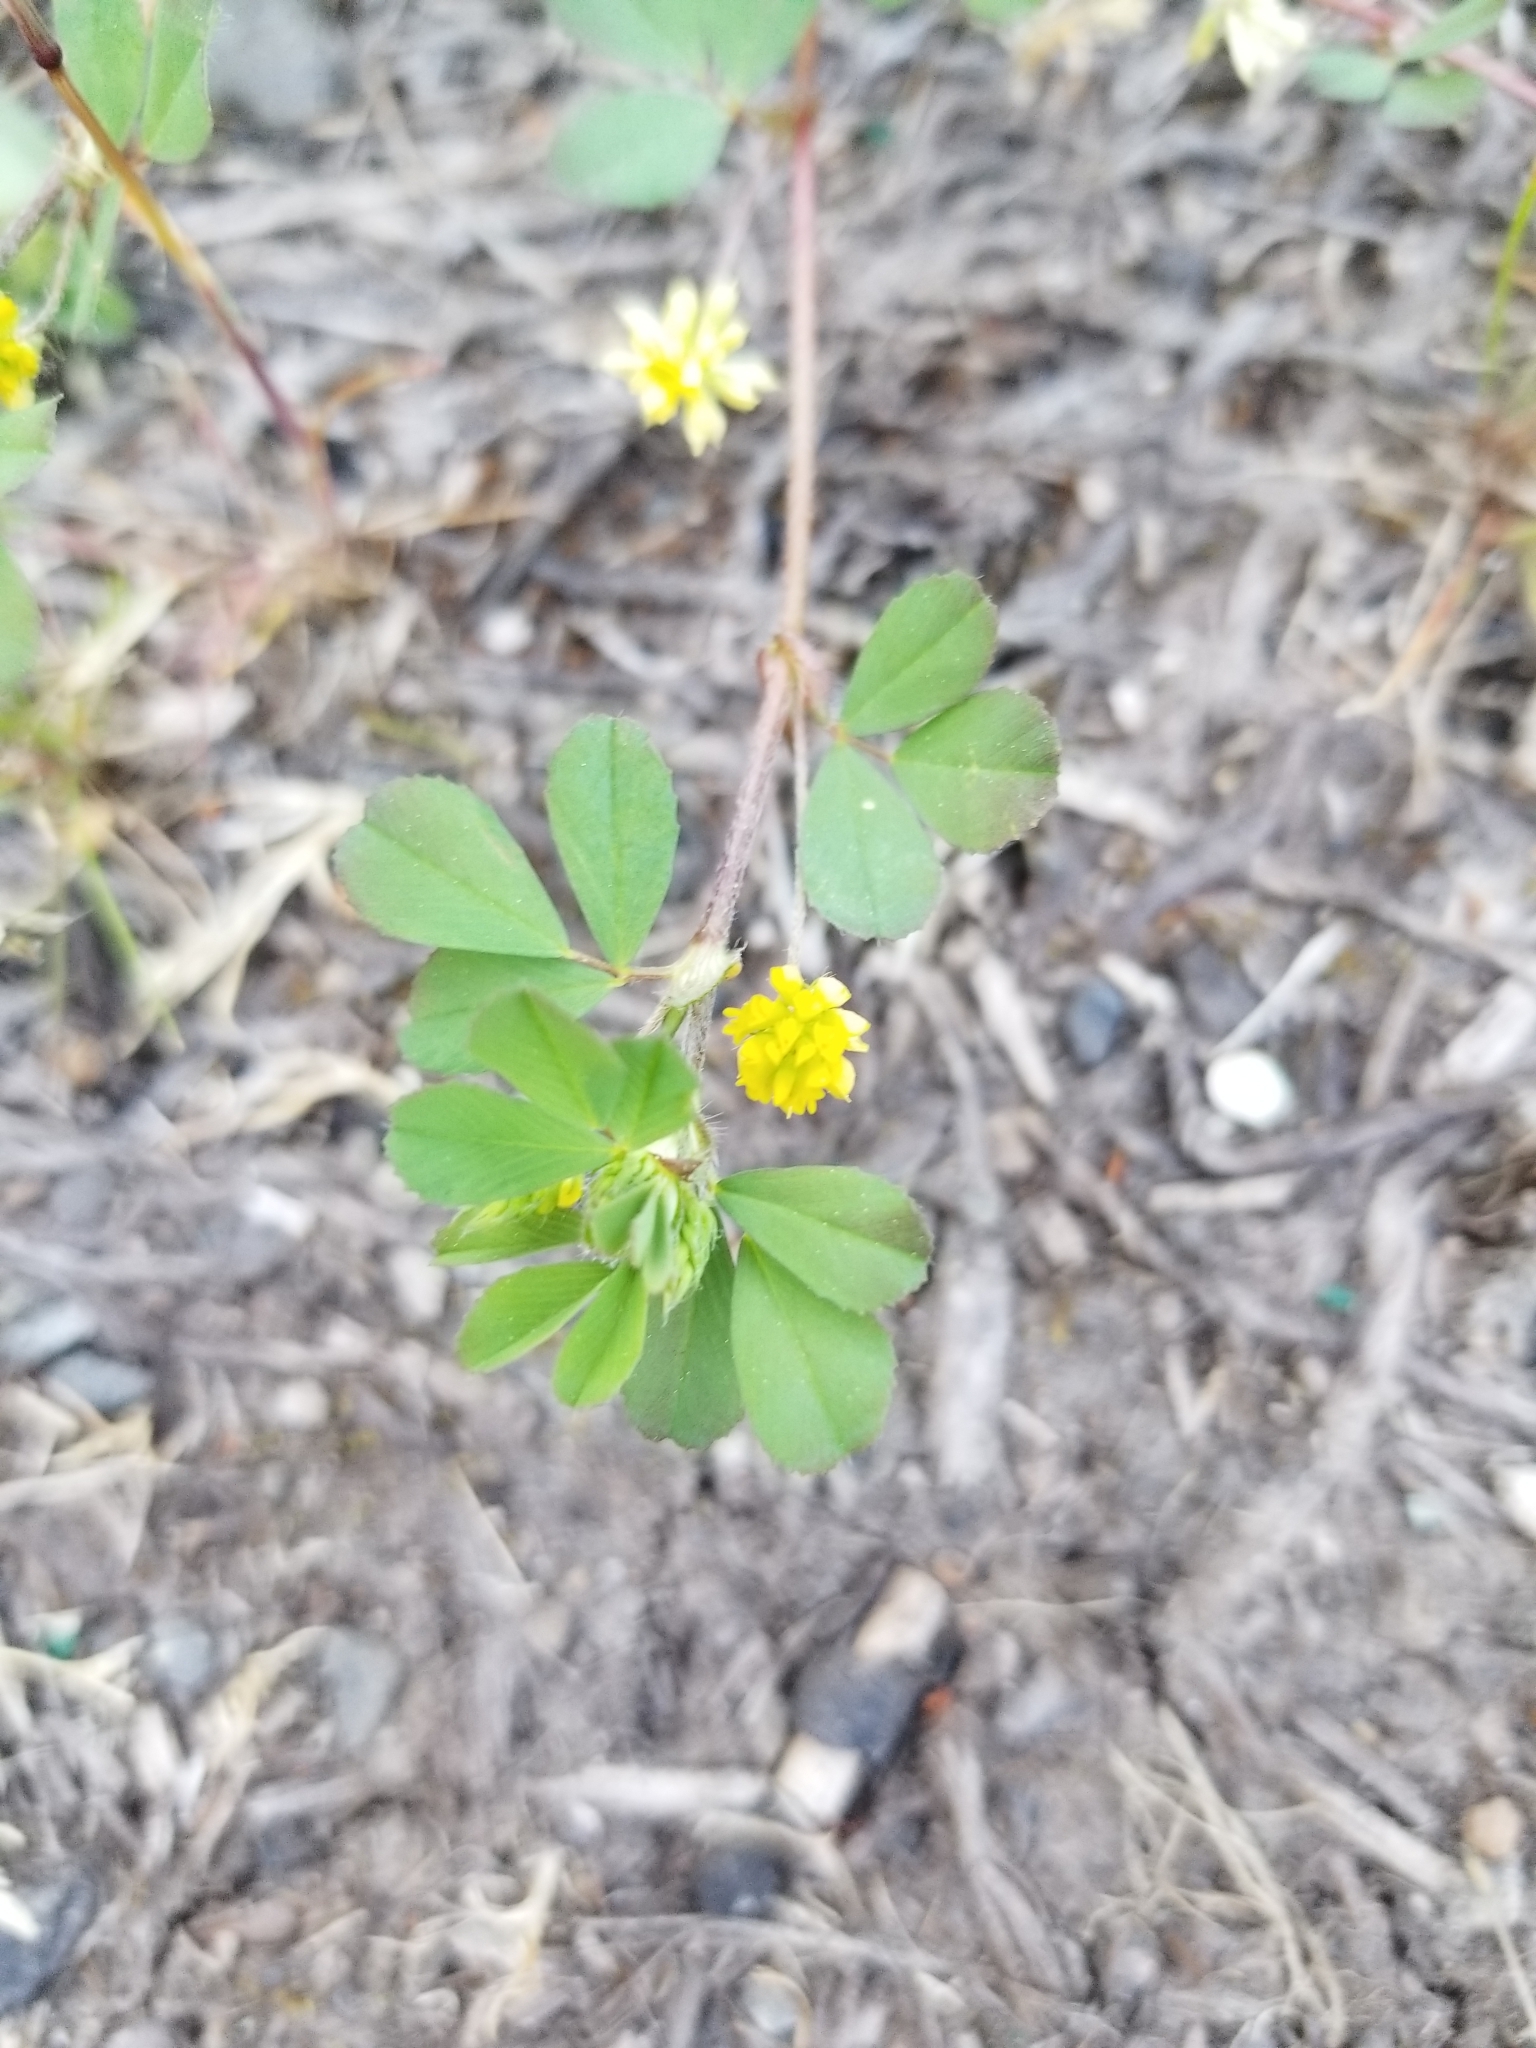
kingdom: Plantae
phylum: Tracheophyta
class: Magnoliopsida
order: Fabales
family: Fabaceae
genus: Trifolium
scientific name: Trifolium dubium
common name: Suckling clover
